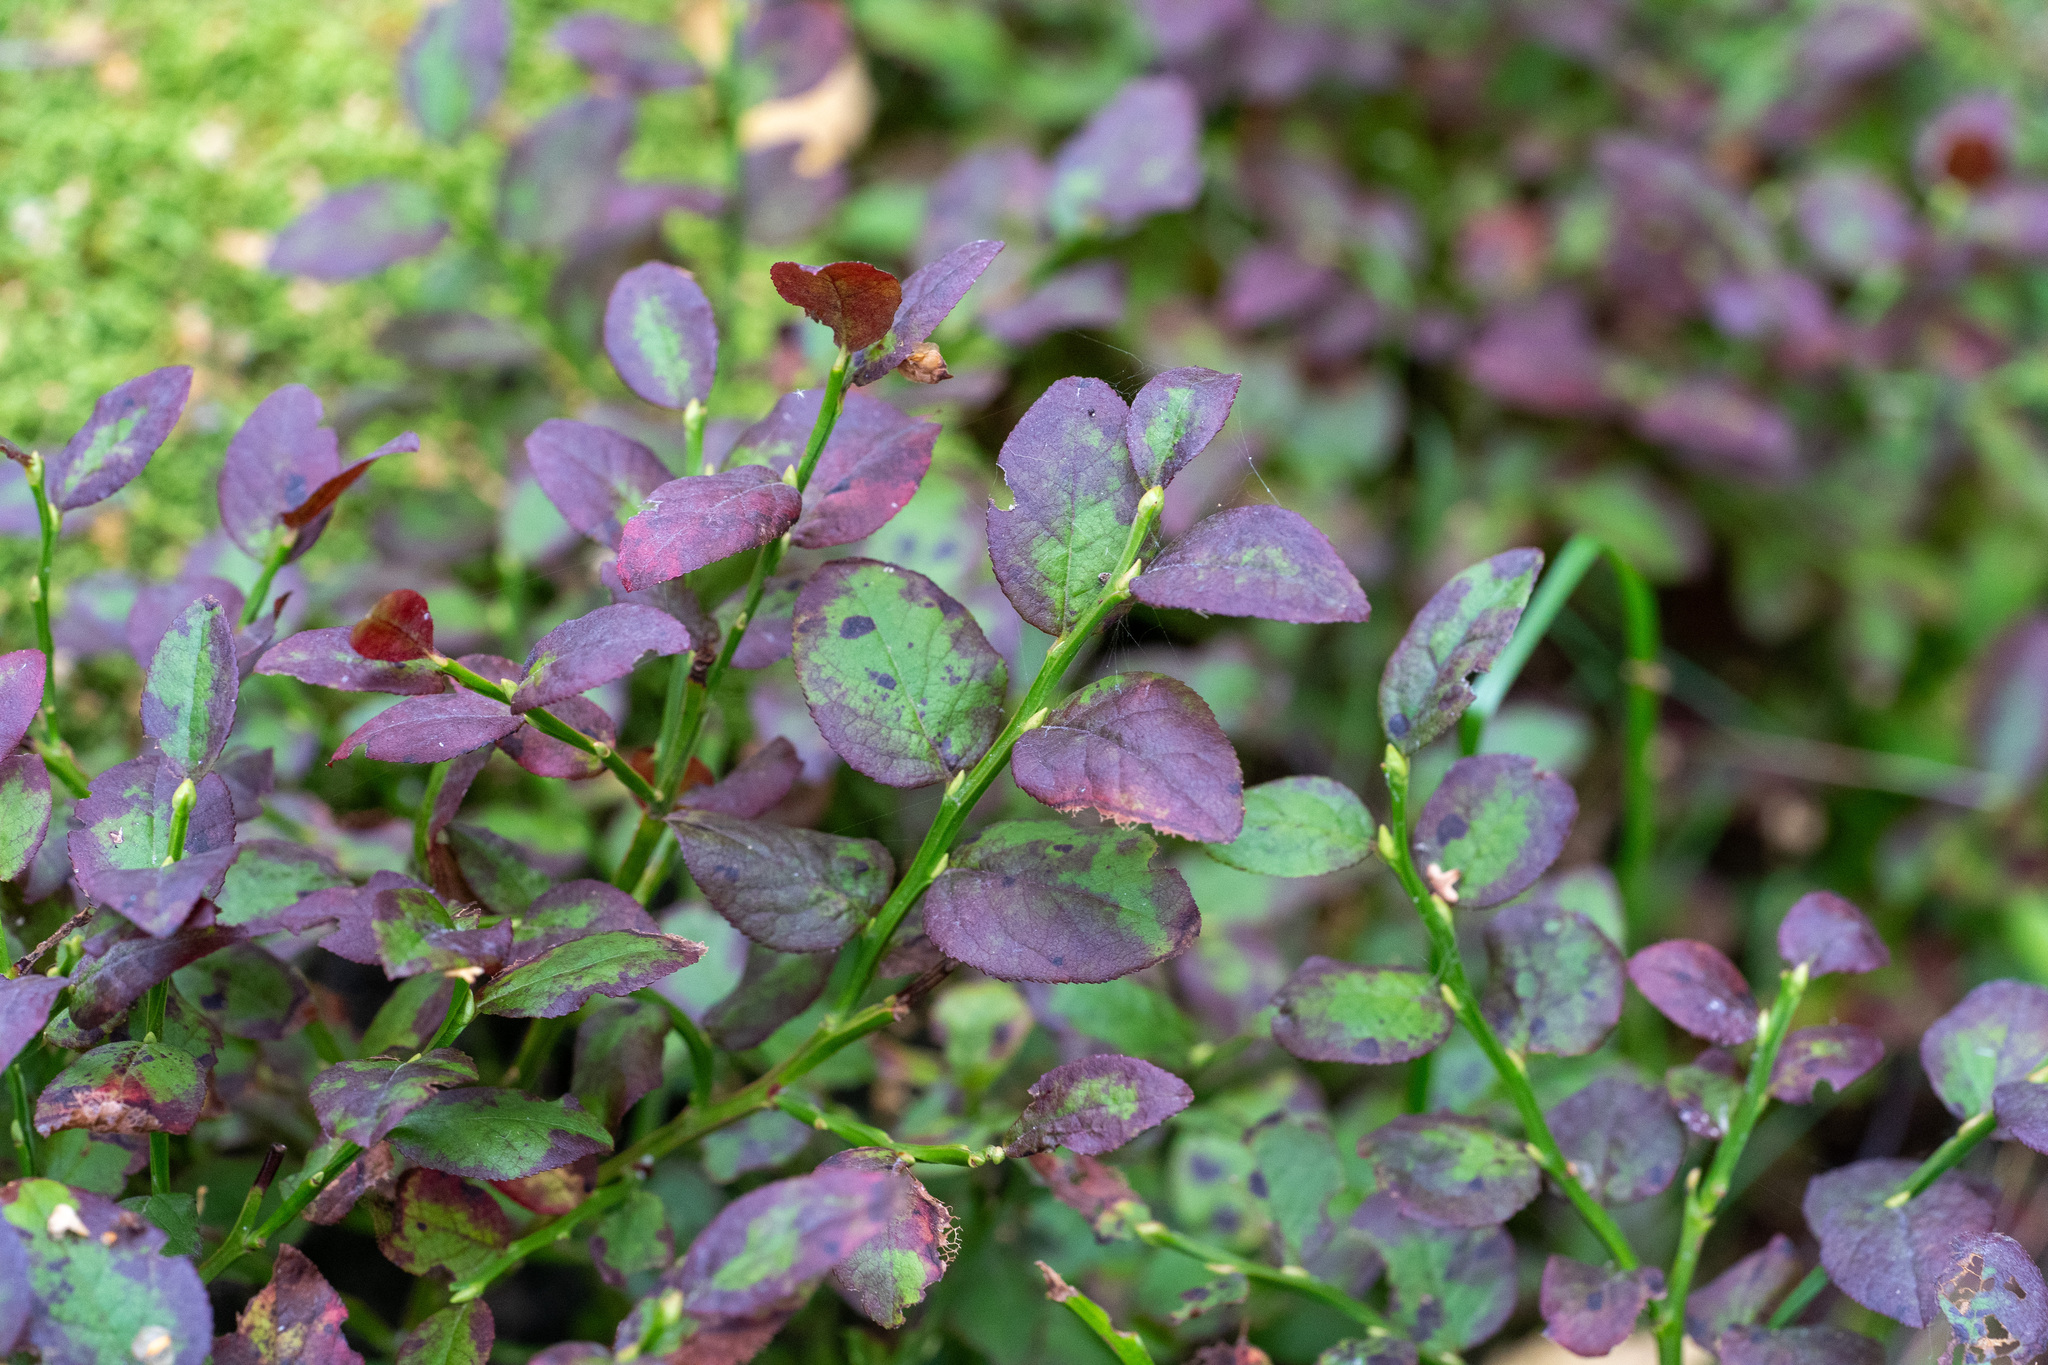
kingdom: Plantae
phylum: Tracheophyta
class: Magnoliopsida
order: Ericales
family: Ericaceae
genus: Vaccinium
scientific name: Vaccinium myrtillus
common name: Bilberry
